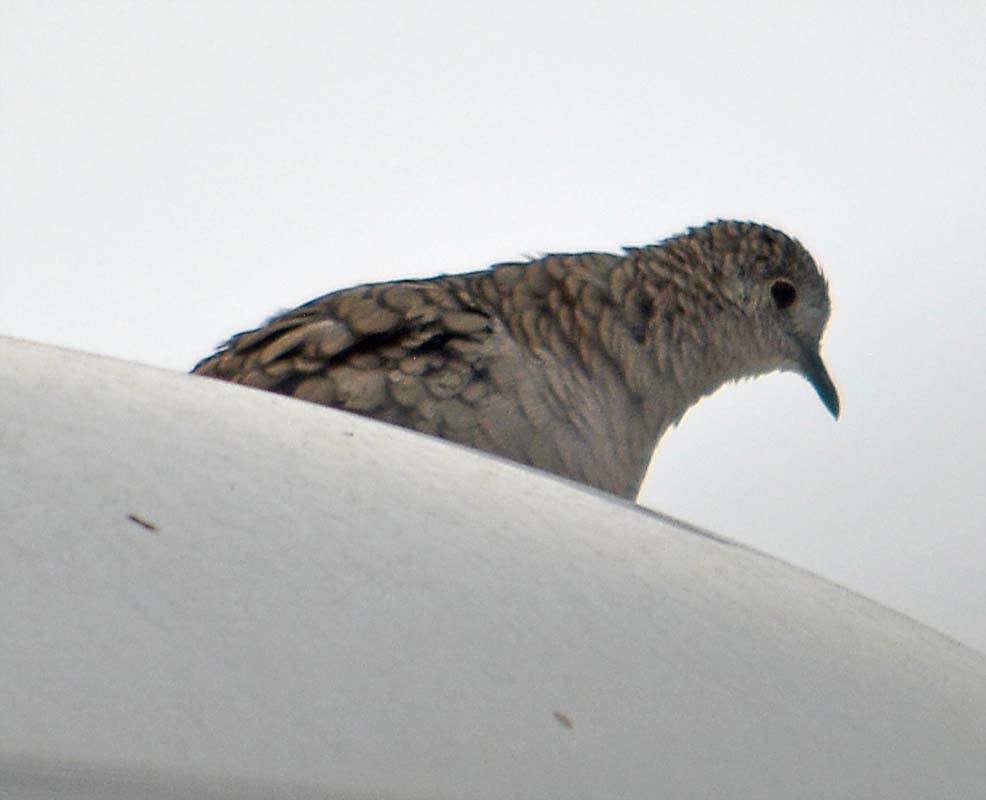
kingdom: Animalia
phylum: Chordata
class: Aves
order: Columbiformes
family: Columbidae
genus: Columbina
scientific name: Columbina inca
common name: Inca dove
